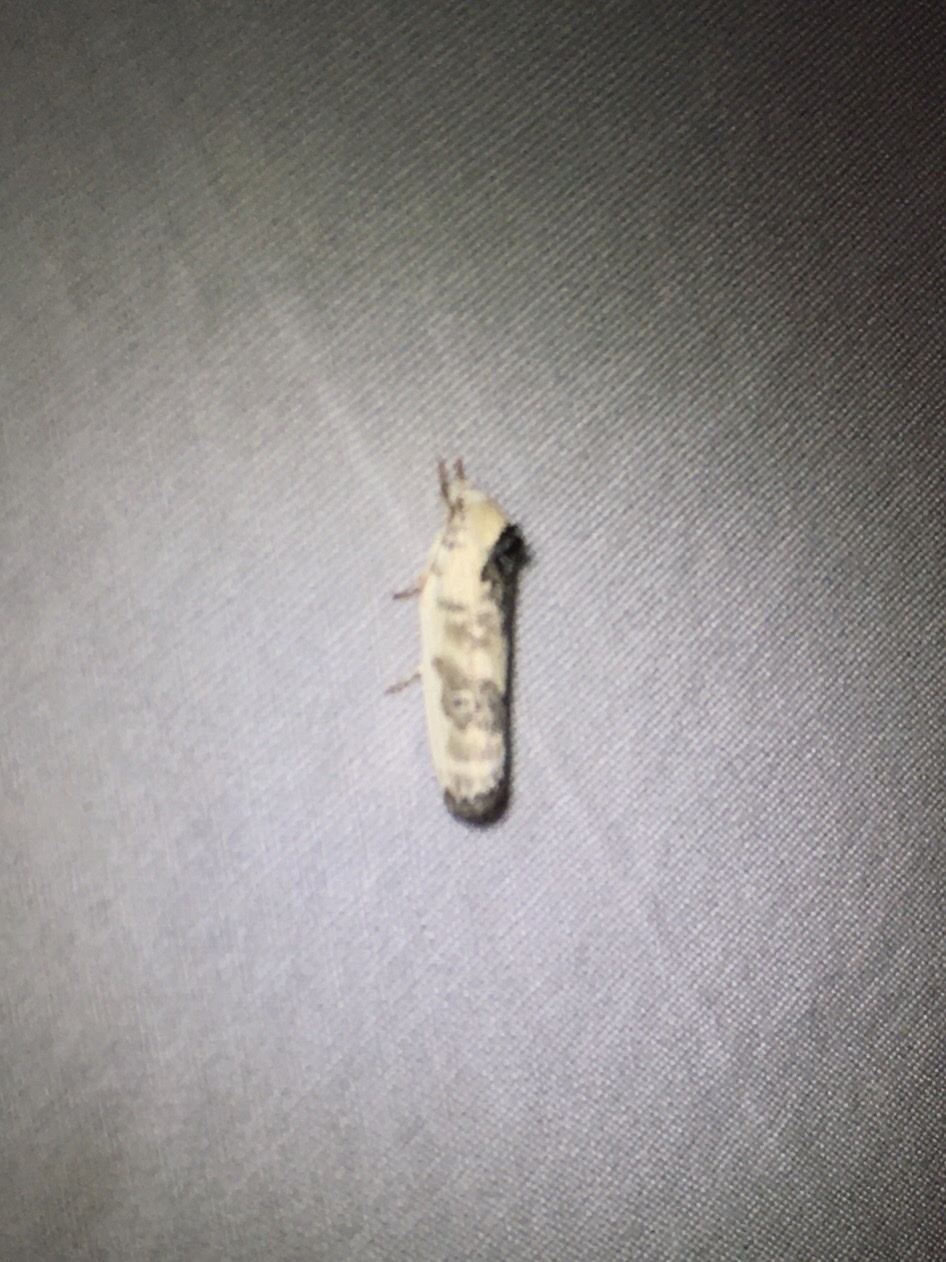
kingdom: Animalia
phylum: Arthropoda
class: Insecta
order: Lepidoptera
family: Depressariidae
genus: Antaeotricha
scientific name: Antaeotricha schlaegeri
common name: Schlaeger's fruitworm moth
